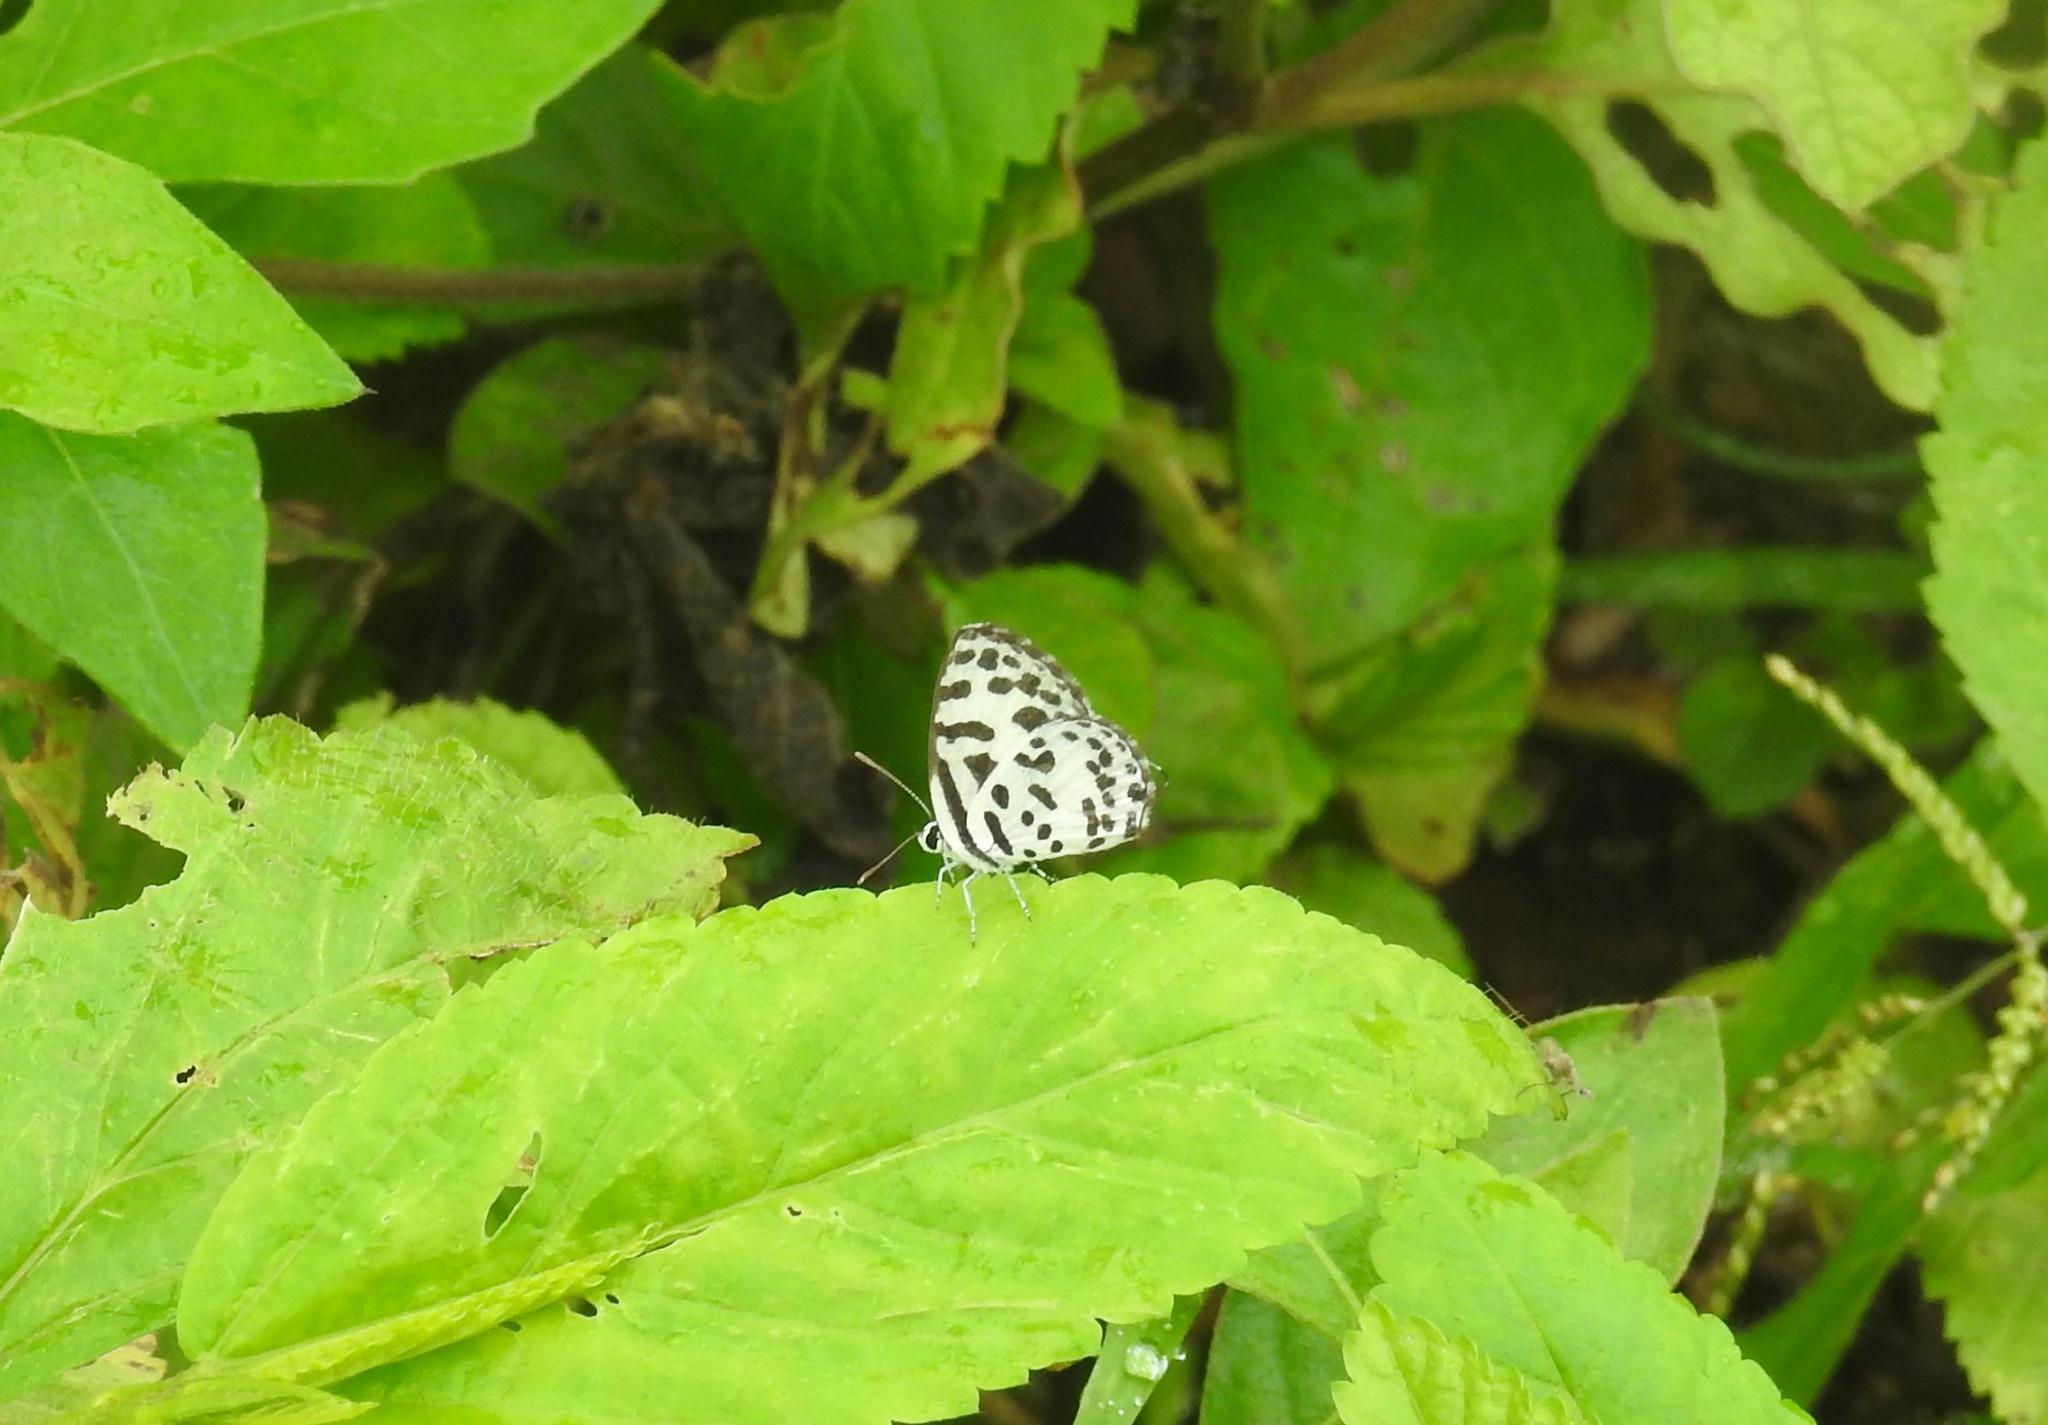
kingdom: Animalia
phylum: Arthropoda
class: Insecta
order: Lepidoptera
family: Lycaenidae
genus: Castalius
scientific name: Castalius rosimon
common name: Common pierrot
